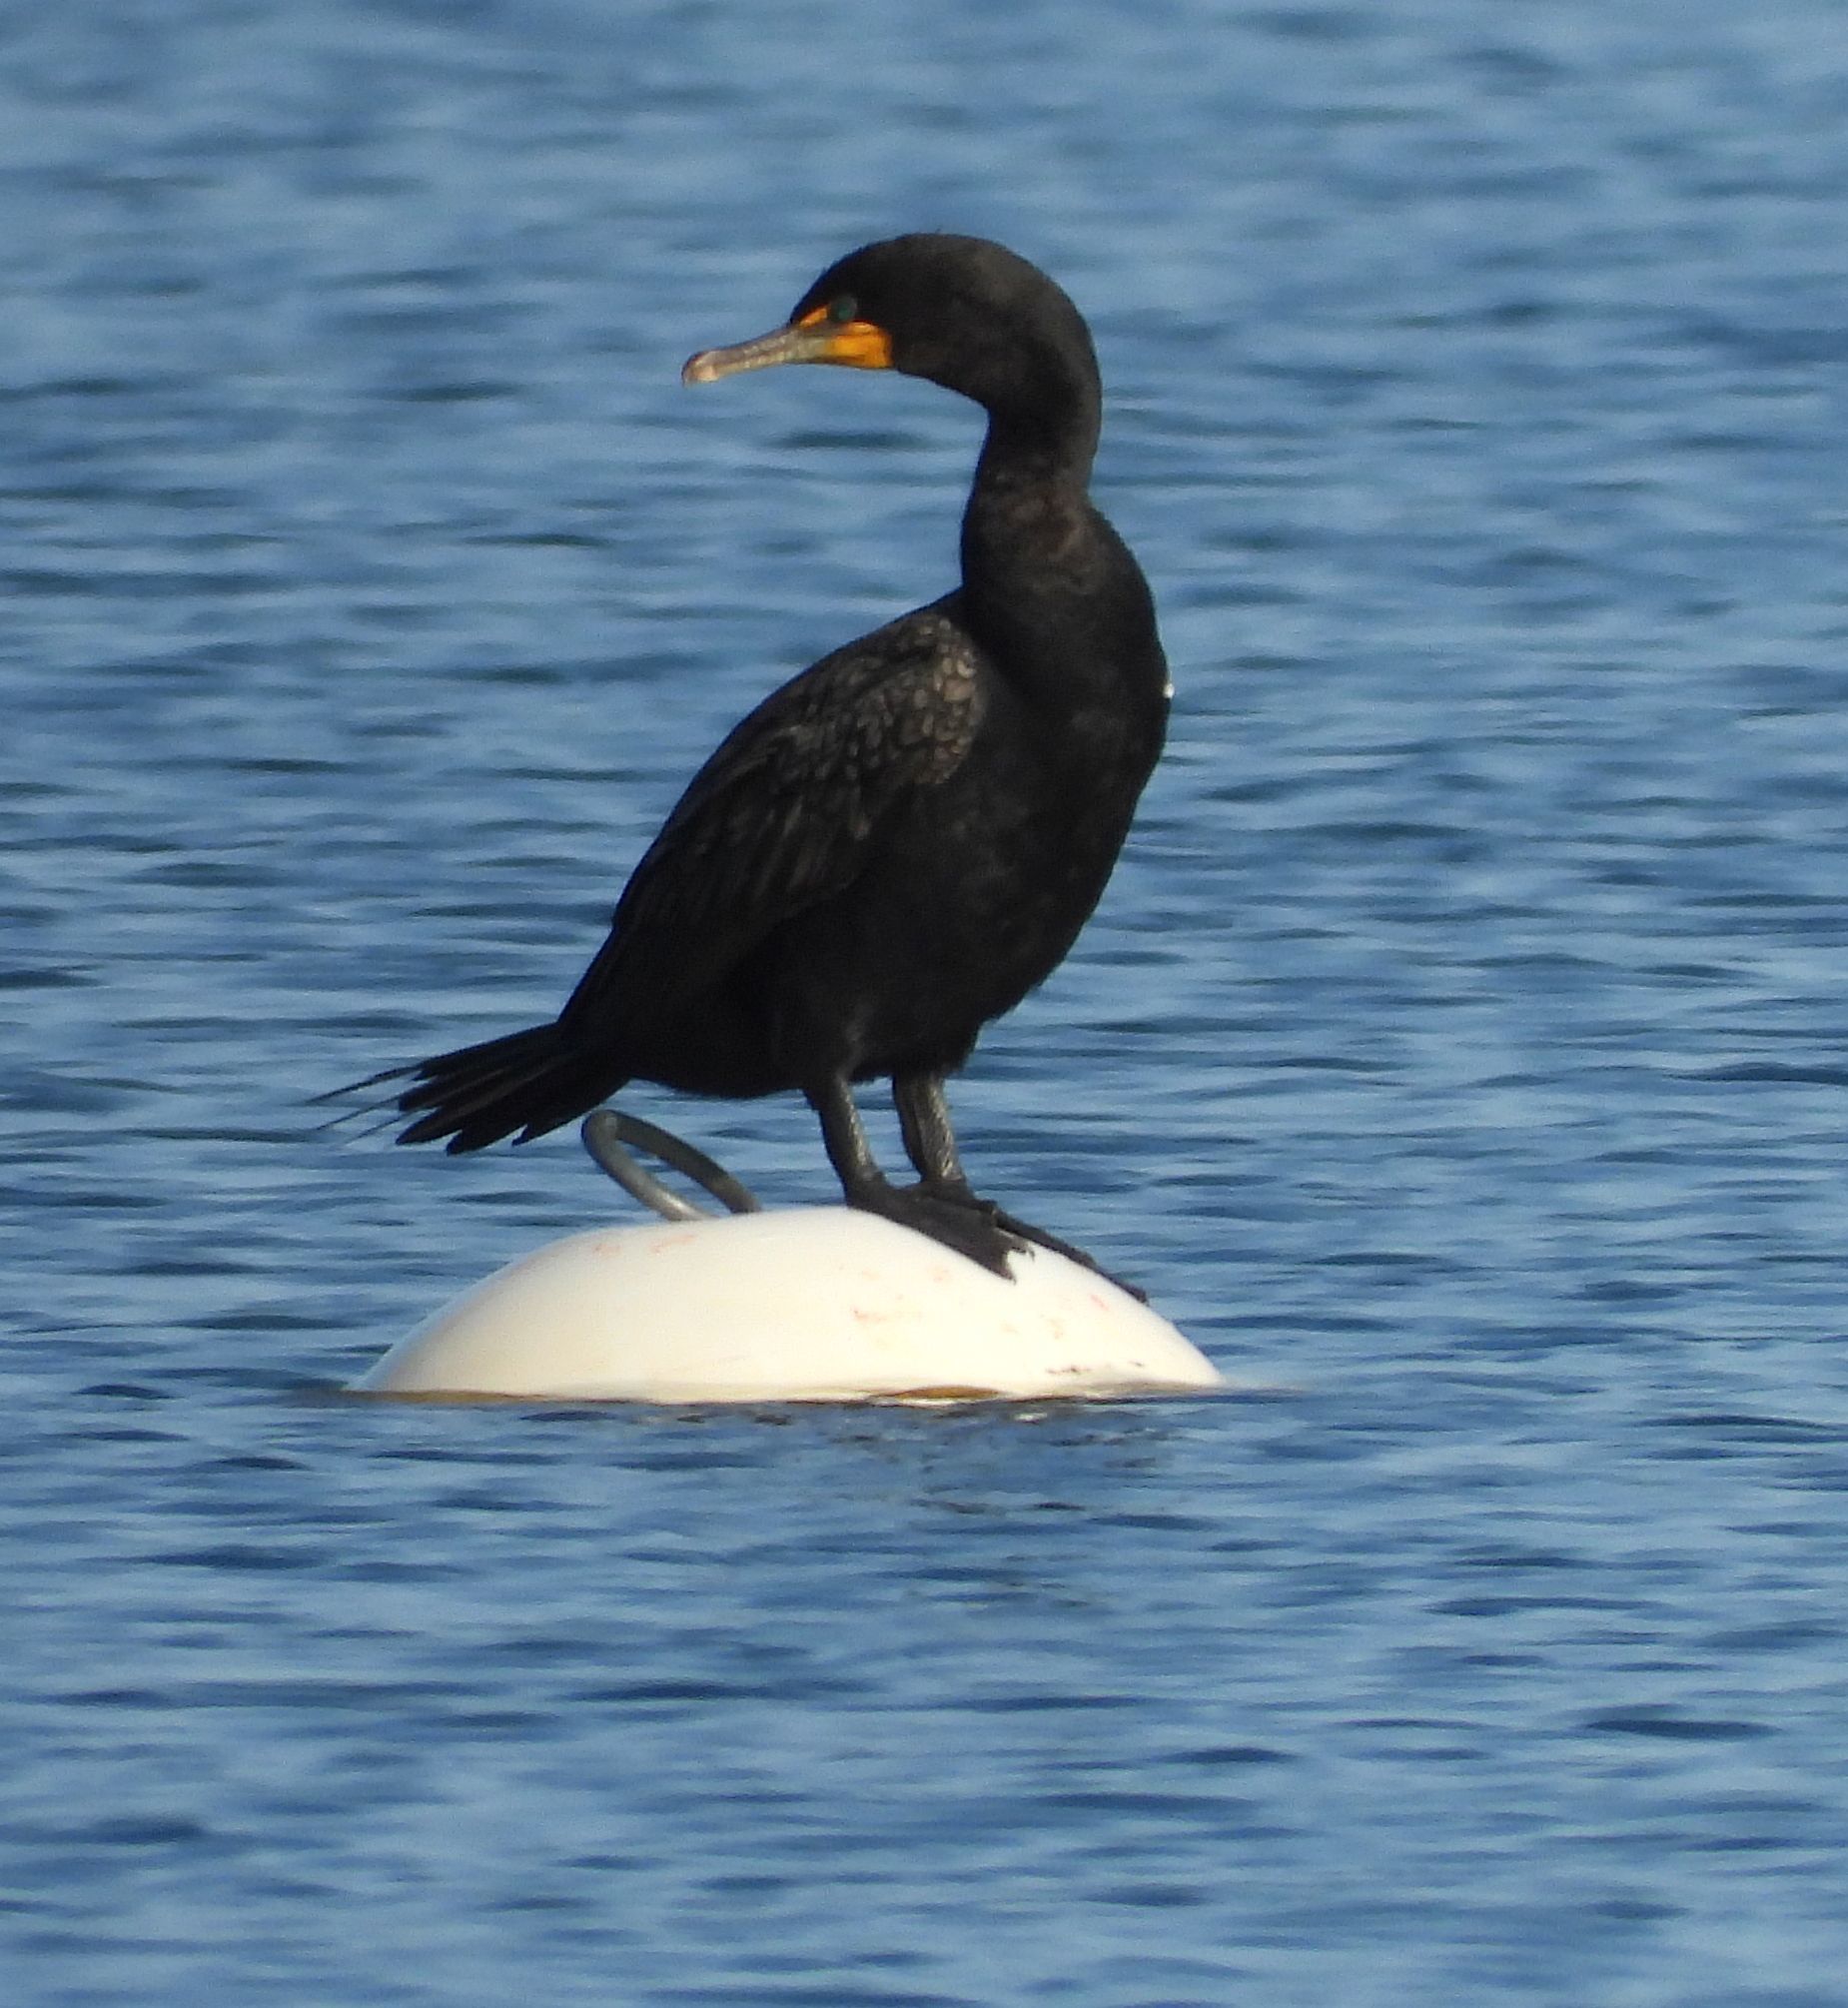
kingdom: Animalia
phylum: Chordata
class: Aves
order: Suliformes
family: Phalacrocoracidae
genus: Phalacrocorax
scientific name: Phalacrocorax auritus
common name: Double-crested cormorant
